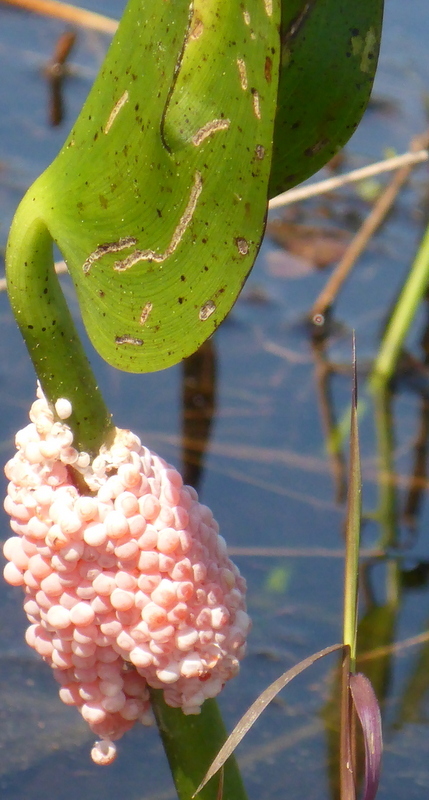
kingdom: Animalia
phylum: Mollusca
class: Gastropoda
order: Architaenioglossa
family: Ampullariidae
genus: Pomacea
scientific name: Pomacea maculata
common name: Giant applesnail
